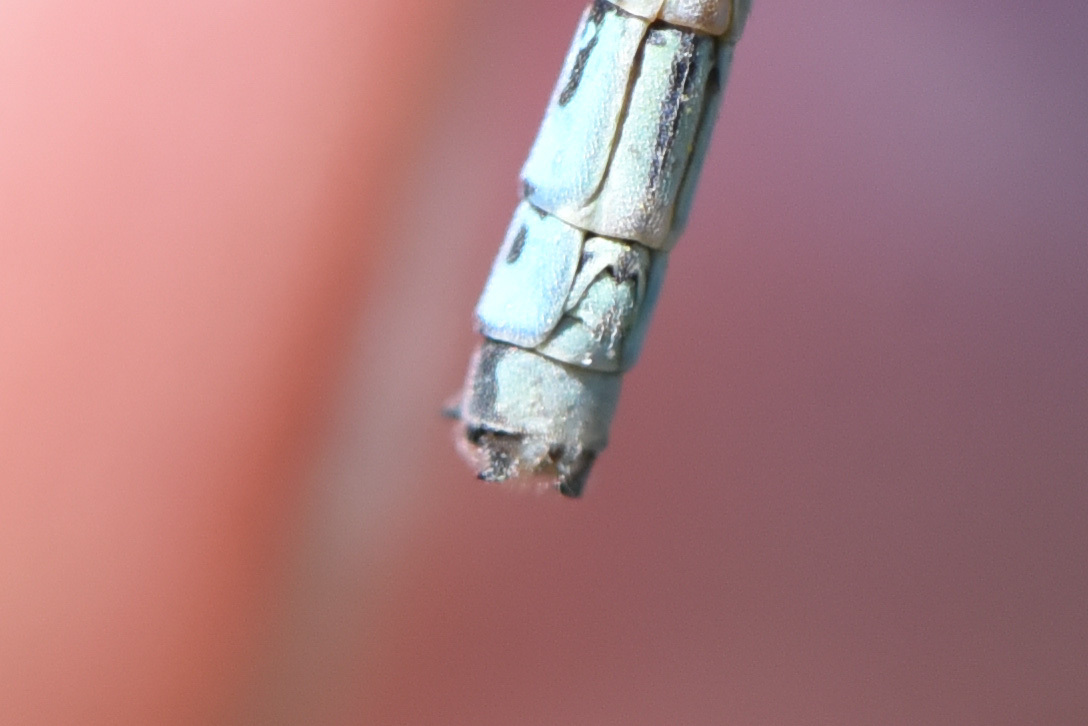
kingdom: Animalia
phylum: Arthropoda
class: Insecta
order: Odonata
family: Coenagrionidae
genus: Ischnura
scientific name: Ischnura cervula
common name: Pacific forktail
